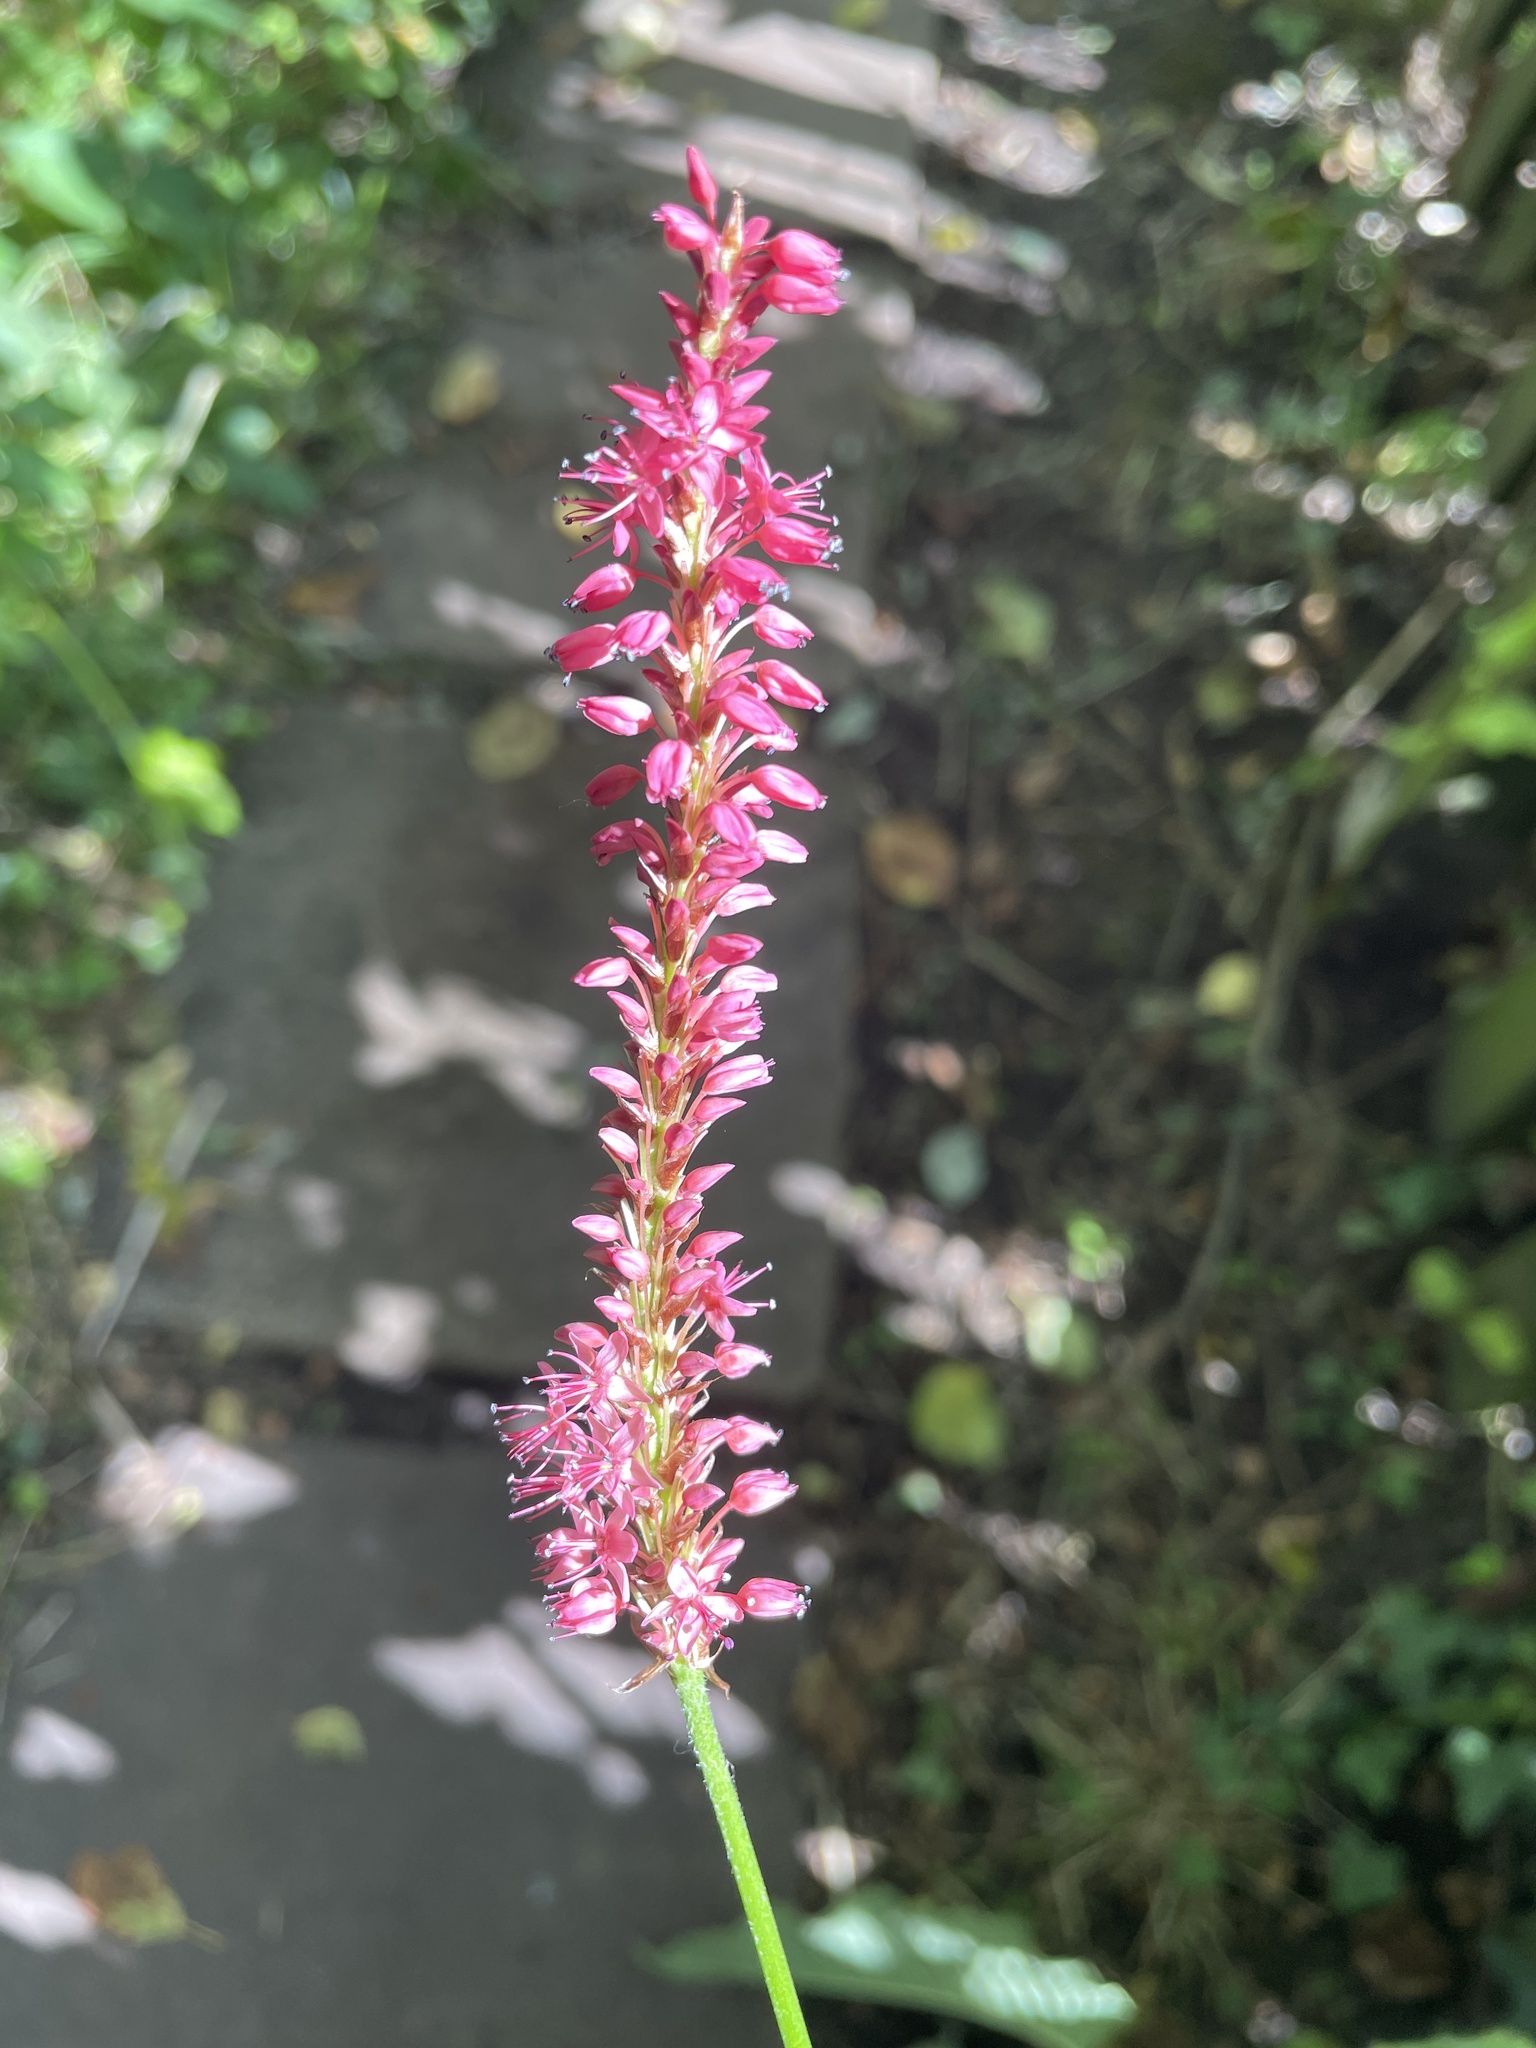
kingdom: Plantae
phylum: Tracheophyta
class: Magnoliopsida
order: Caryophyllales
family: Polygonaceae
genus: Bistorta
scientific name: Bistorta amplexicaulis
